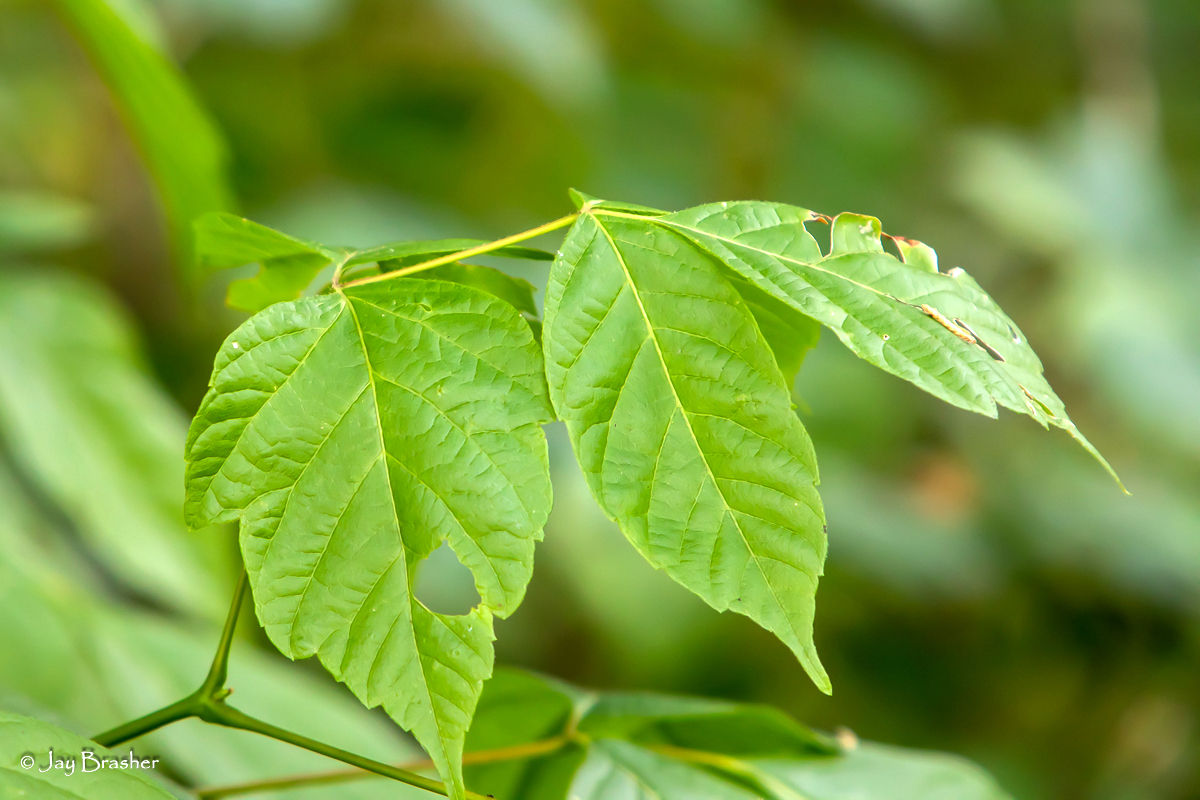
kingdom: Plantae
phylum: Tracheophyta
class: Magnoliopsida
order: Sapindales
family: Sapindaceae
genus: Acer
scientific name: Acer negundo
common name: Ashleaf maple
